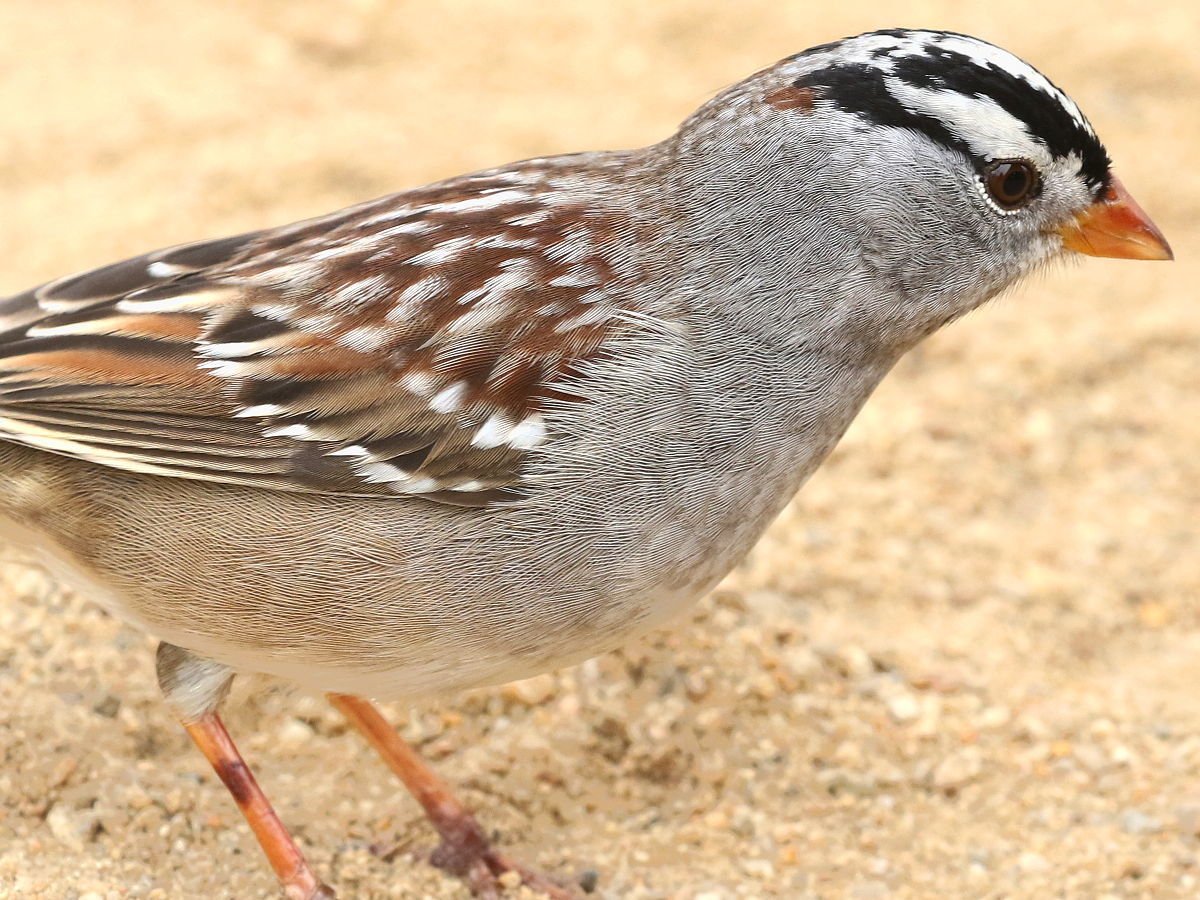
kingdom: Animalia
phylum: Chordata
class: Aves
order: Passeriformes
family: Passerellidae
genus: Zonotrichia
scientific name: Zonotrichia leucophrys
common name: White-crowned sparrow
